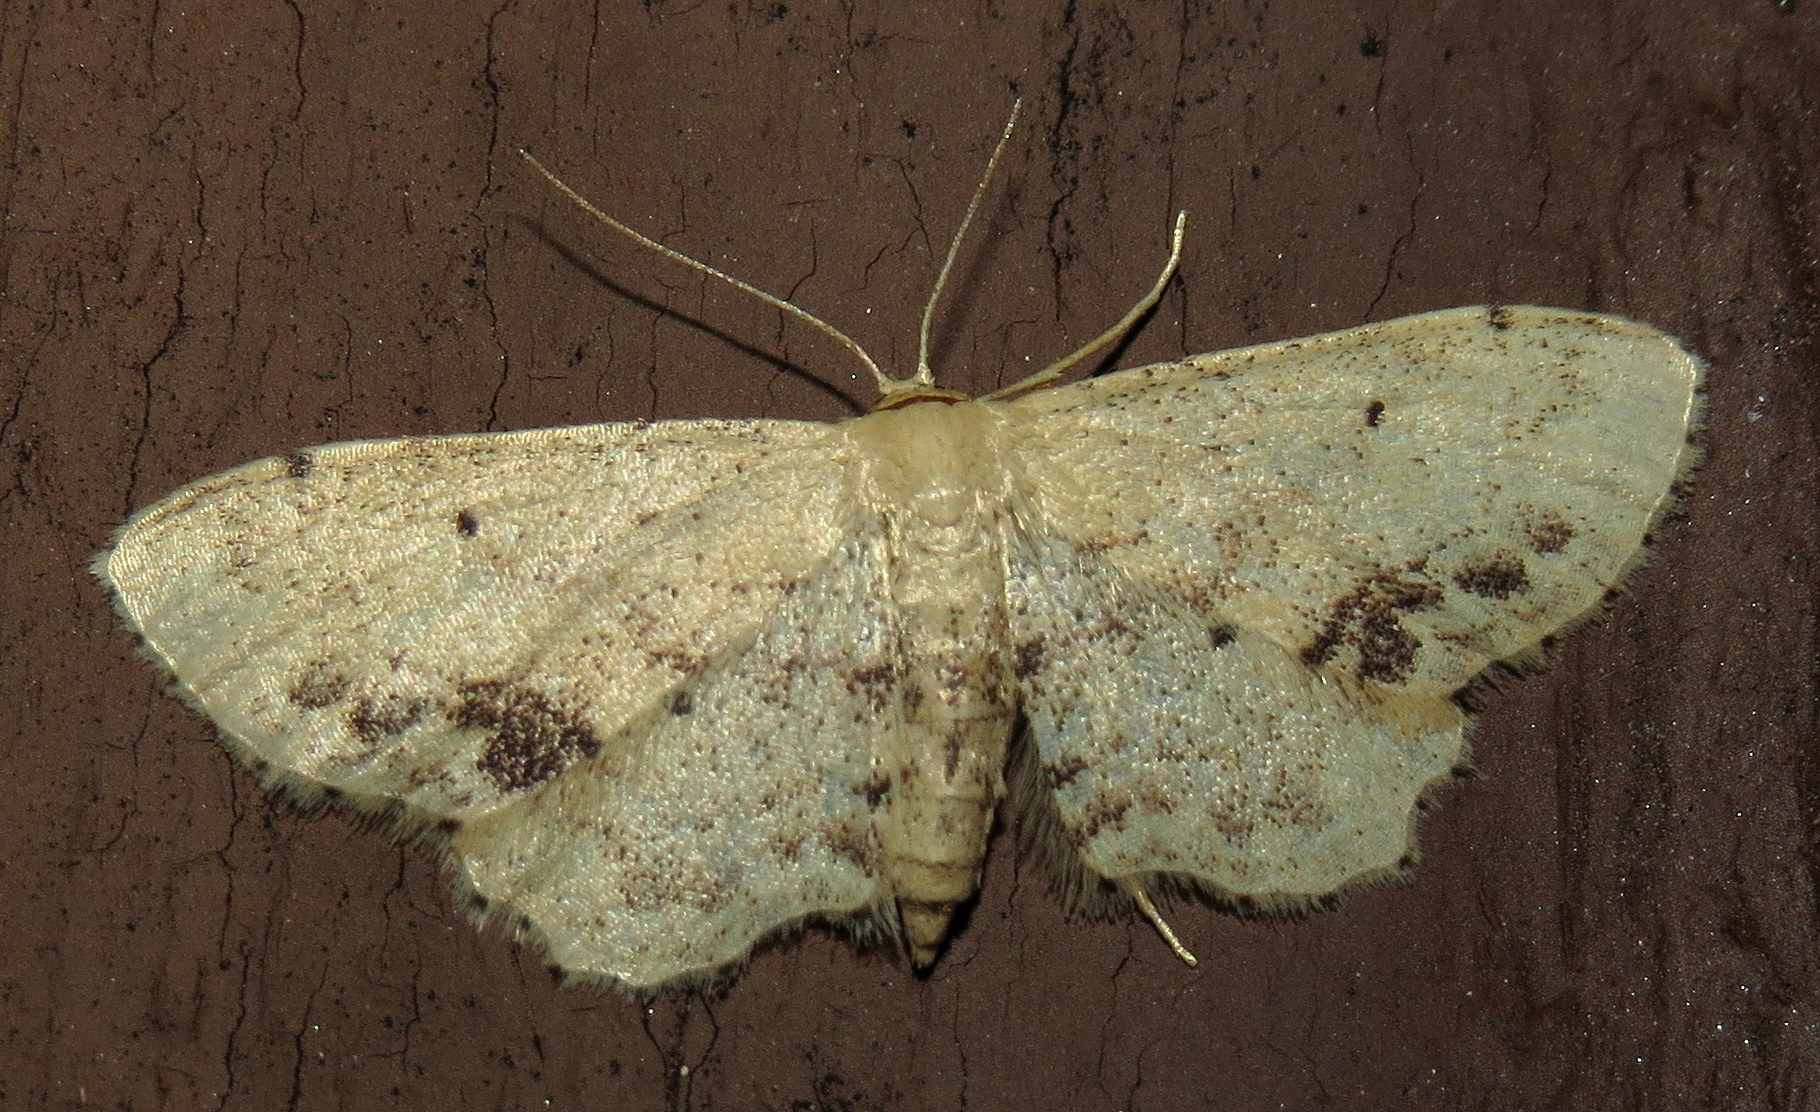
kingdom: Animalia
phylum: Arthropoda
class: Insecta
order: Lepidoptera
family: Geometridae
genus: Idaea
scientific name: Idaea dimidiata
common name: Single-dotted wave
